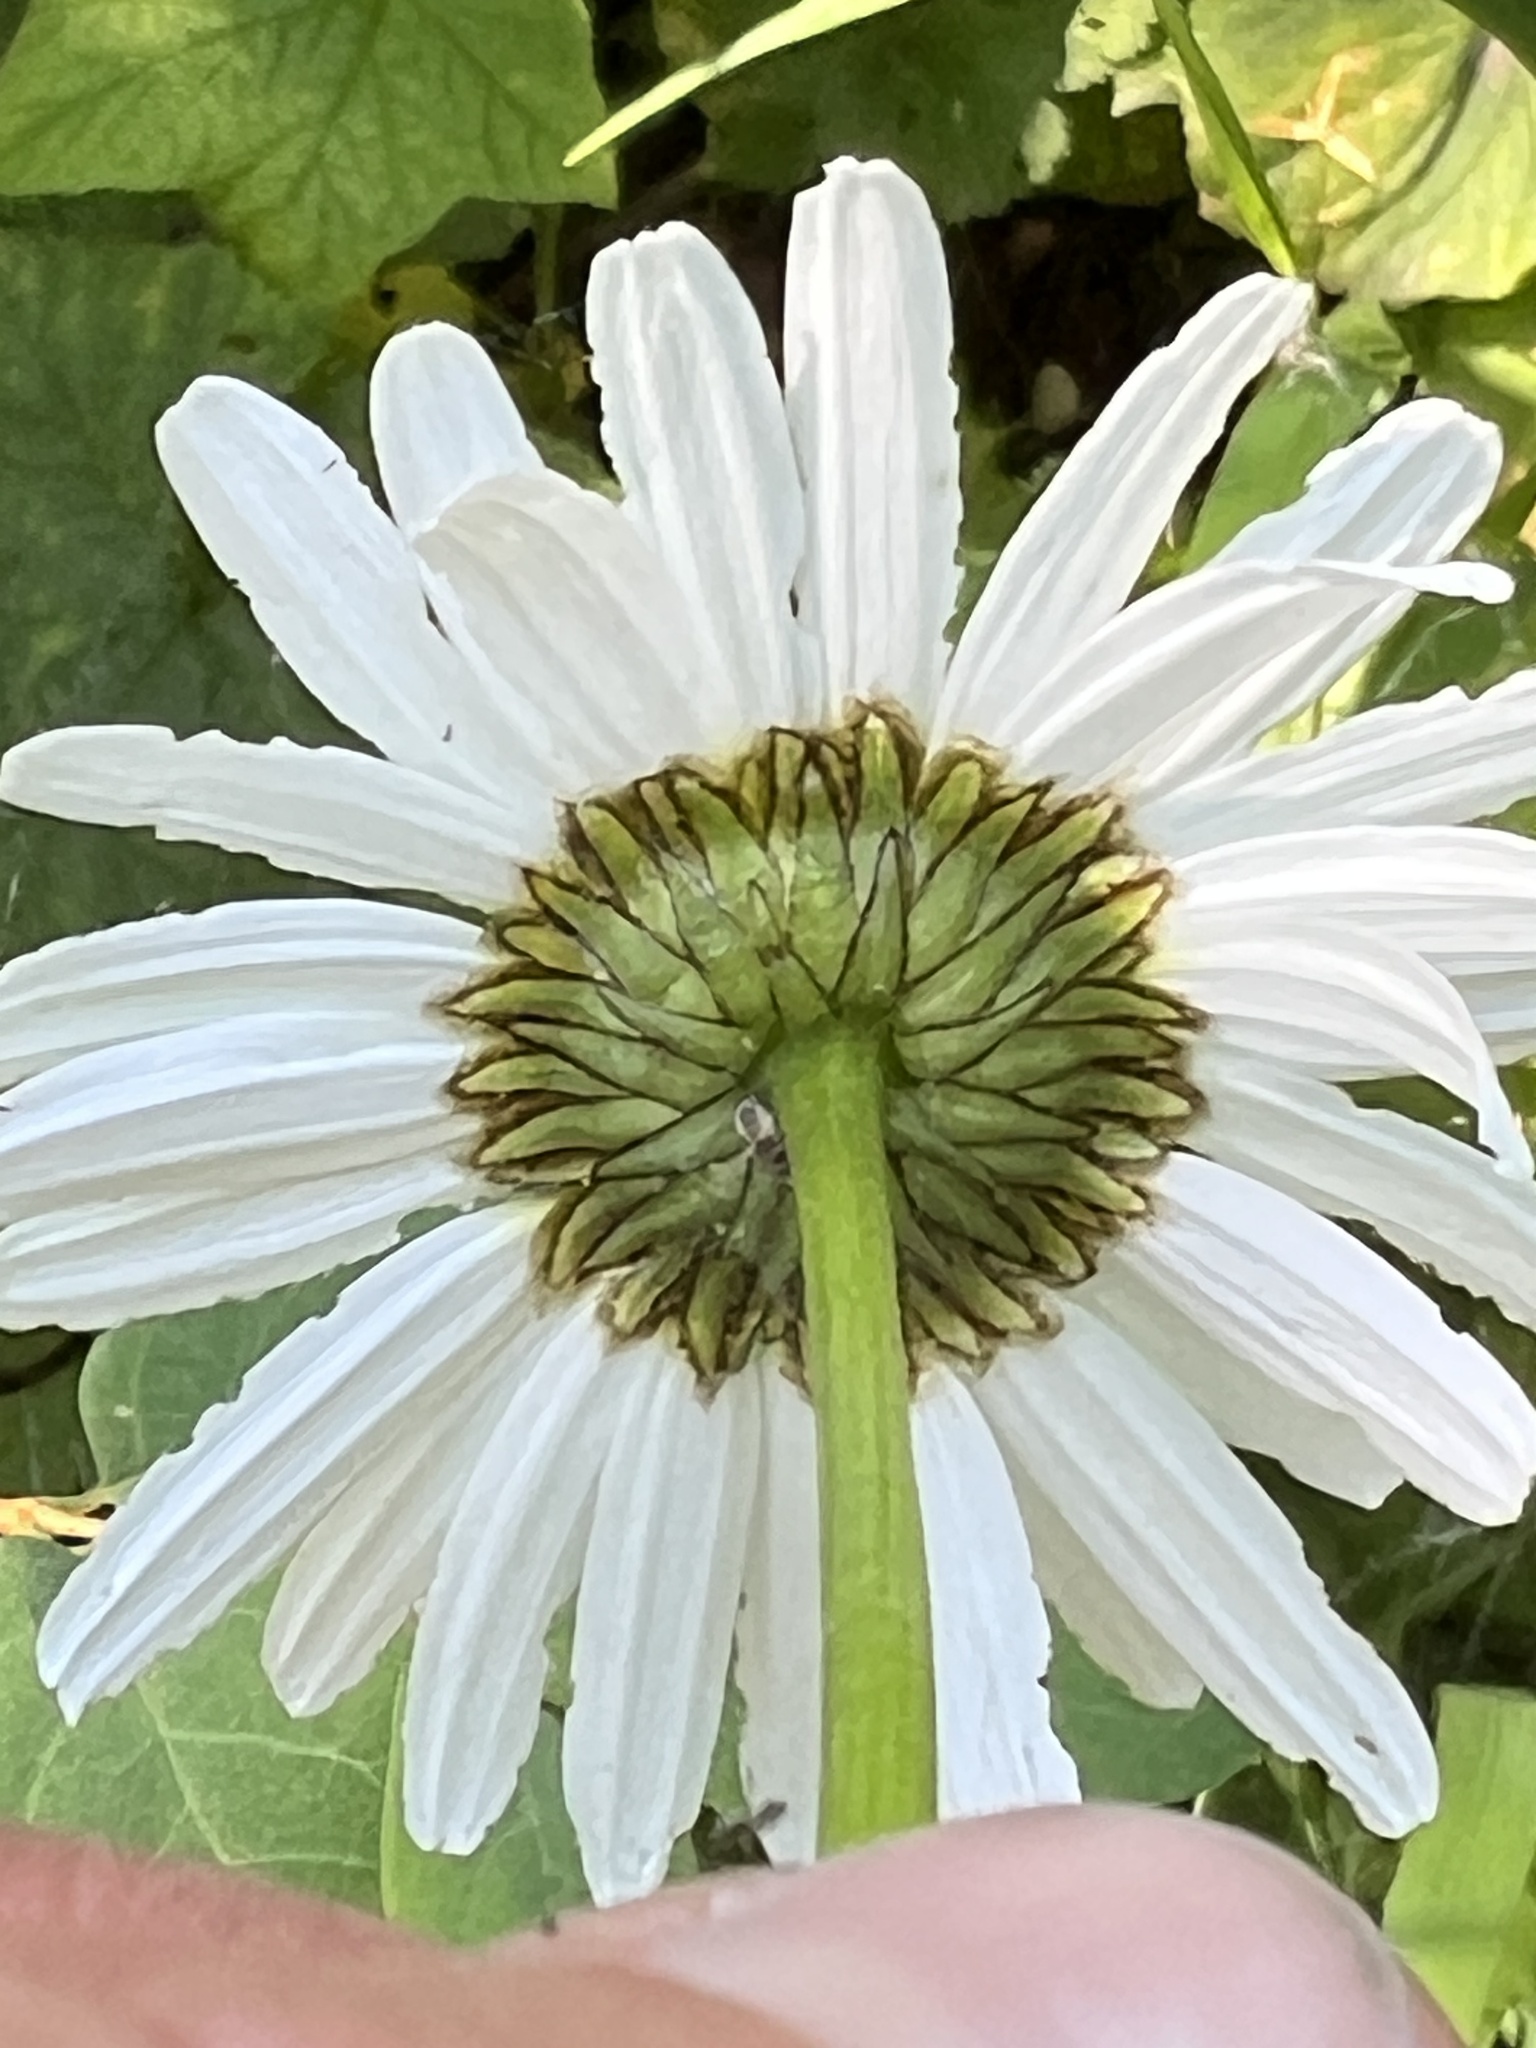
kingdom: Plantae
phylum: Tracheophyta
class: Magnoliopsida
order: Asterales
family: Asteraceae
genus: Leucanthemum
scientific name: Leucanthemum vulgare
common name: Oxeye daisy
